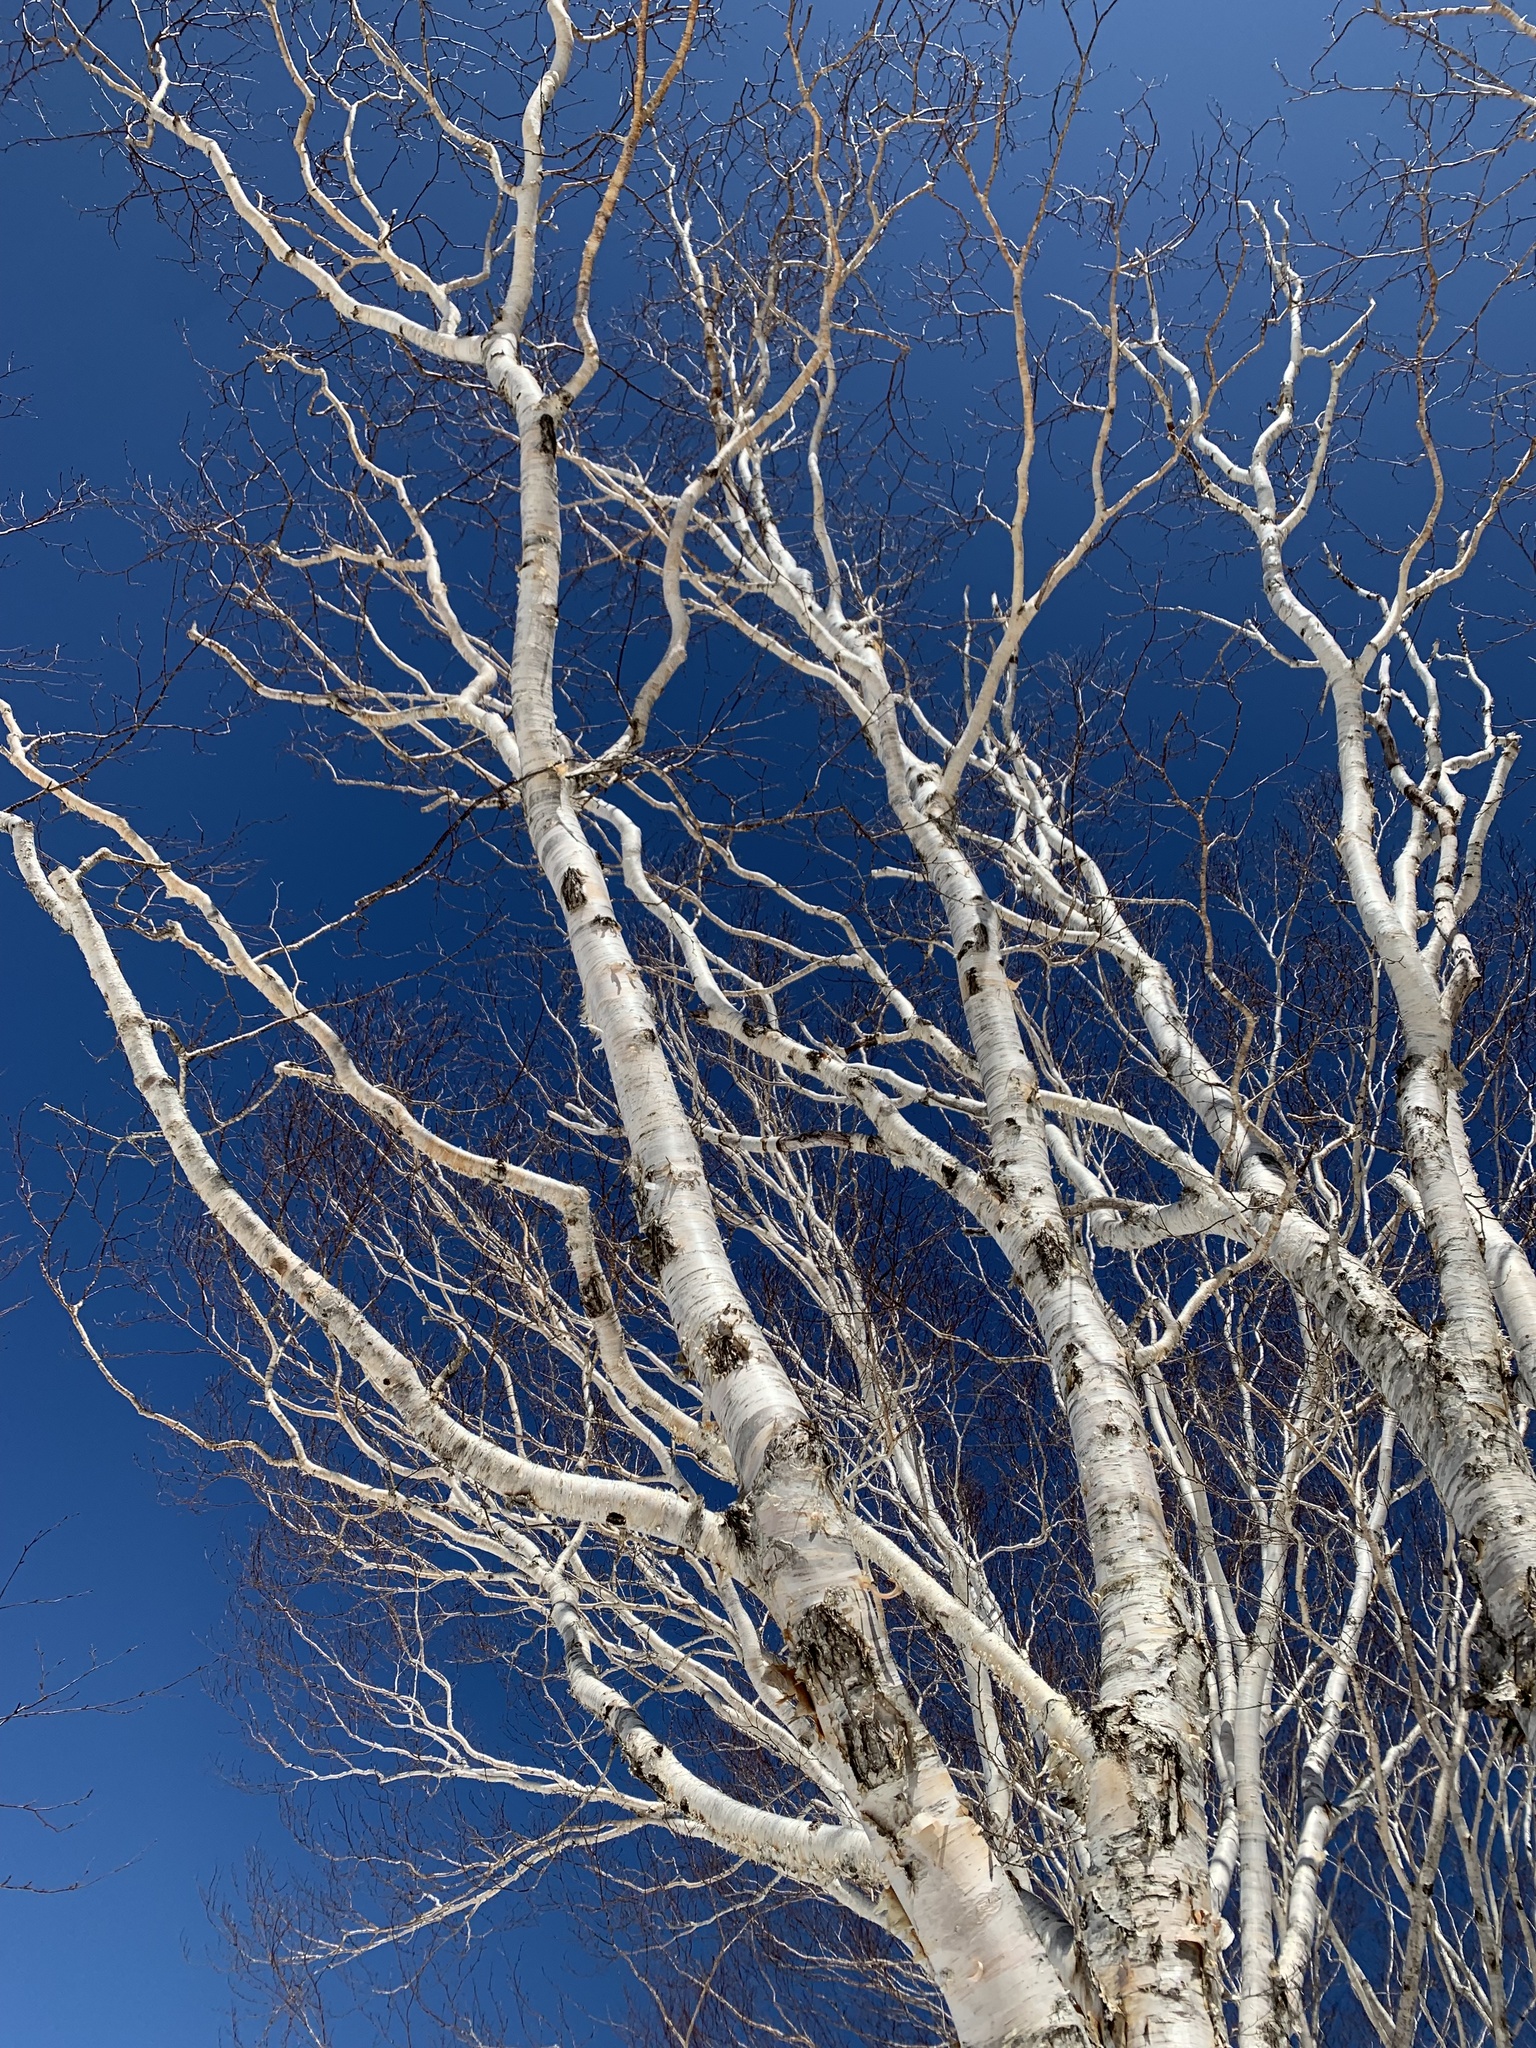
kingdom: Plantae
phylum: Tracheophyta
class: Magnoliopsida
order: Fagales
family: Betulaceae
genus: Betula
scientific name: Betula ermanii
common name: Erman's birch
